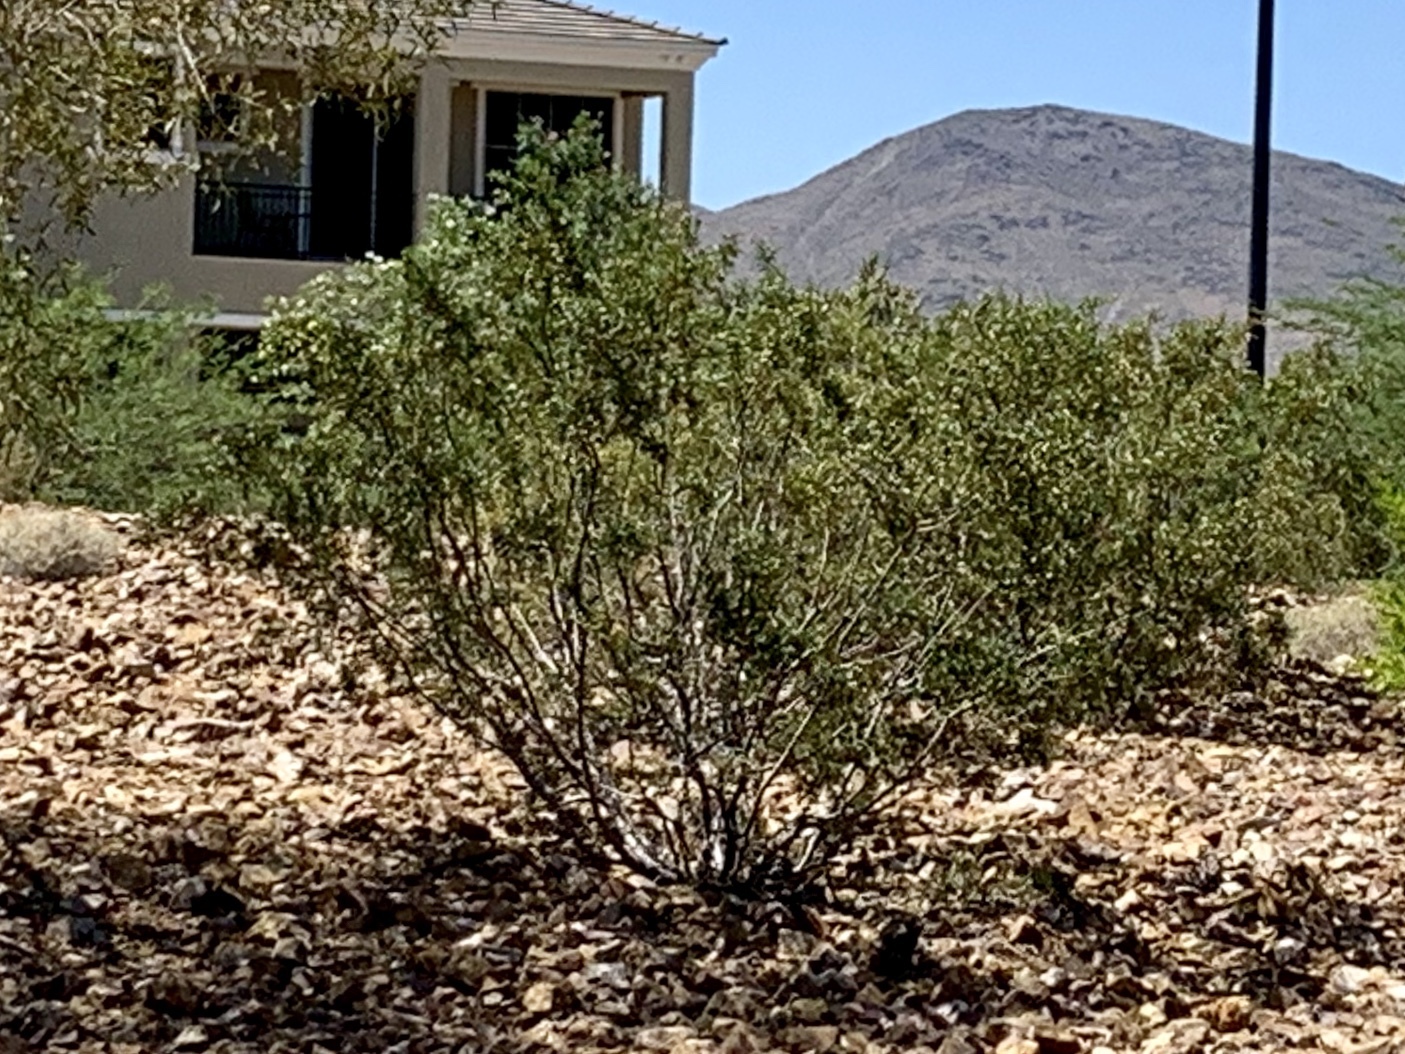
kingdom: Plantae
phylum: Tracheophyta
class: Magnoliopsida
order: Zygophyllales
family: Zygophyllaceae
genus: Larrea
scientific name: Larrea tridentata
